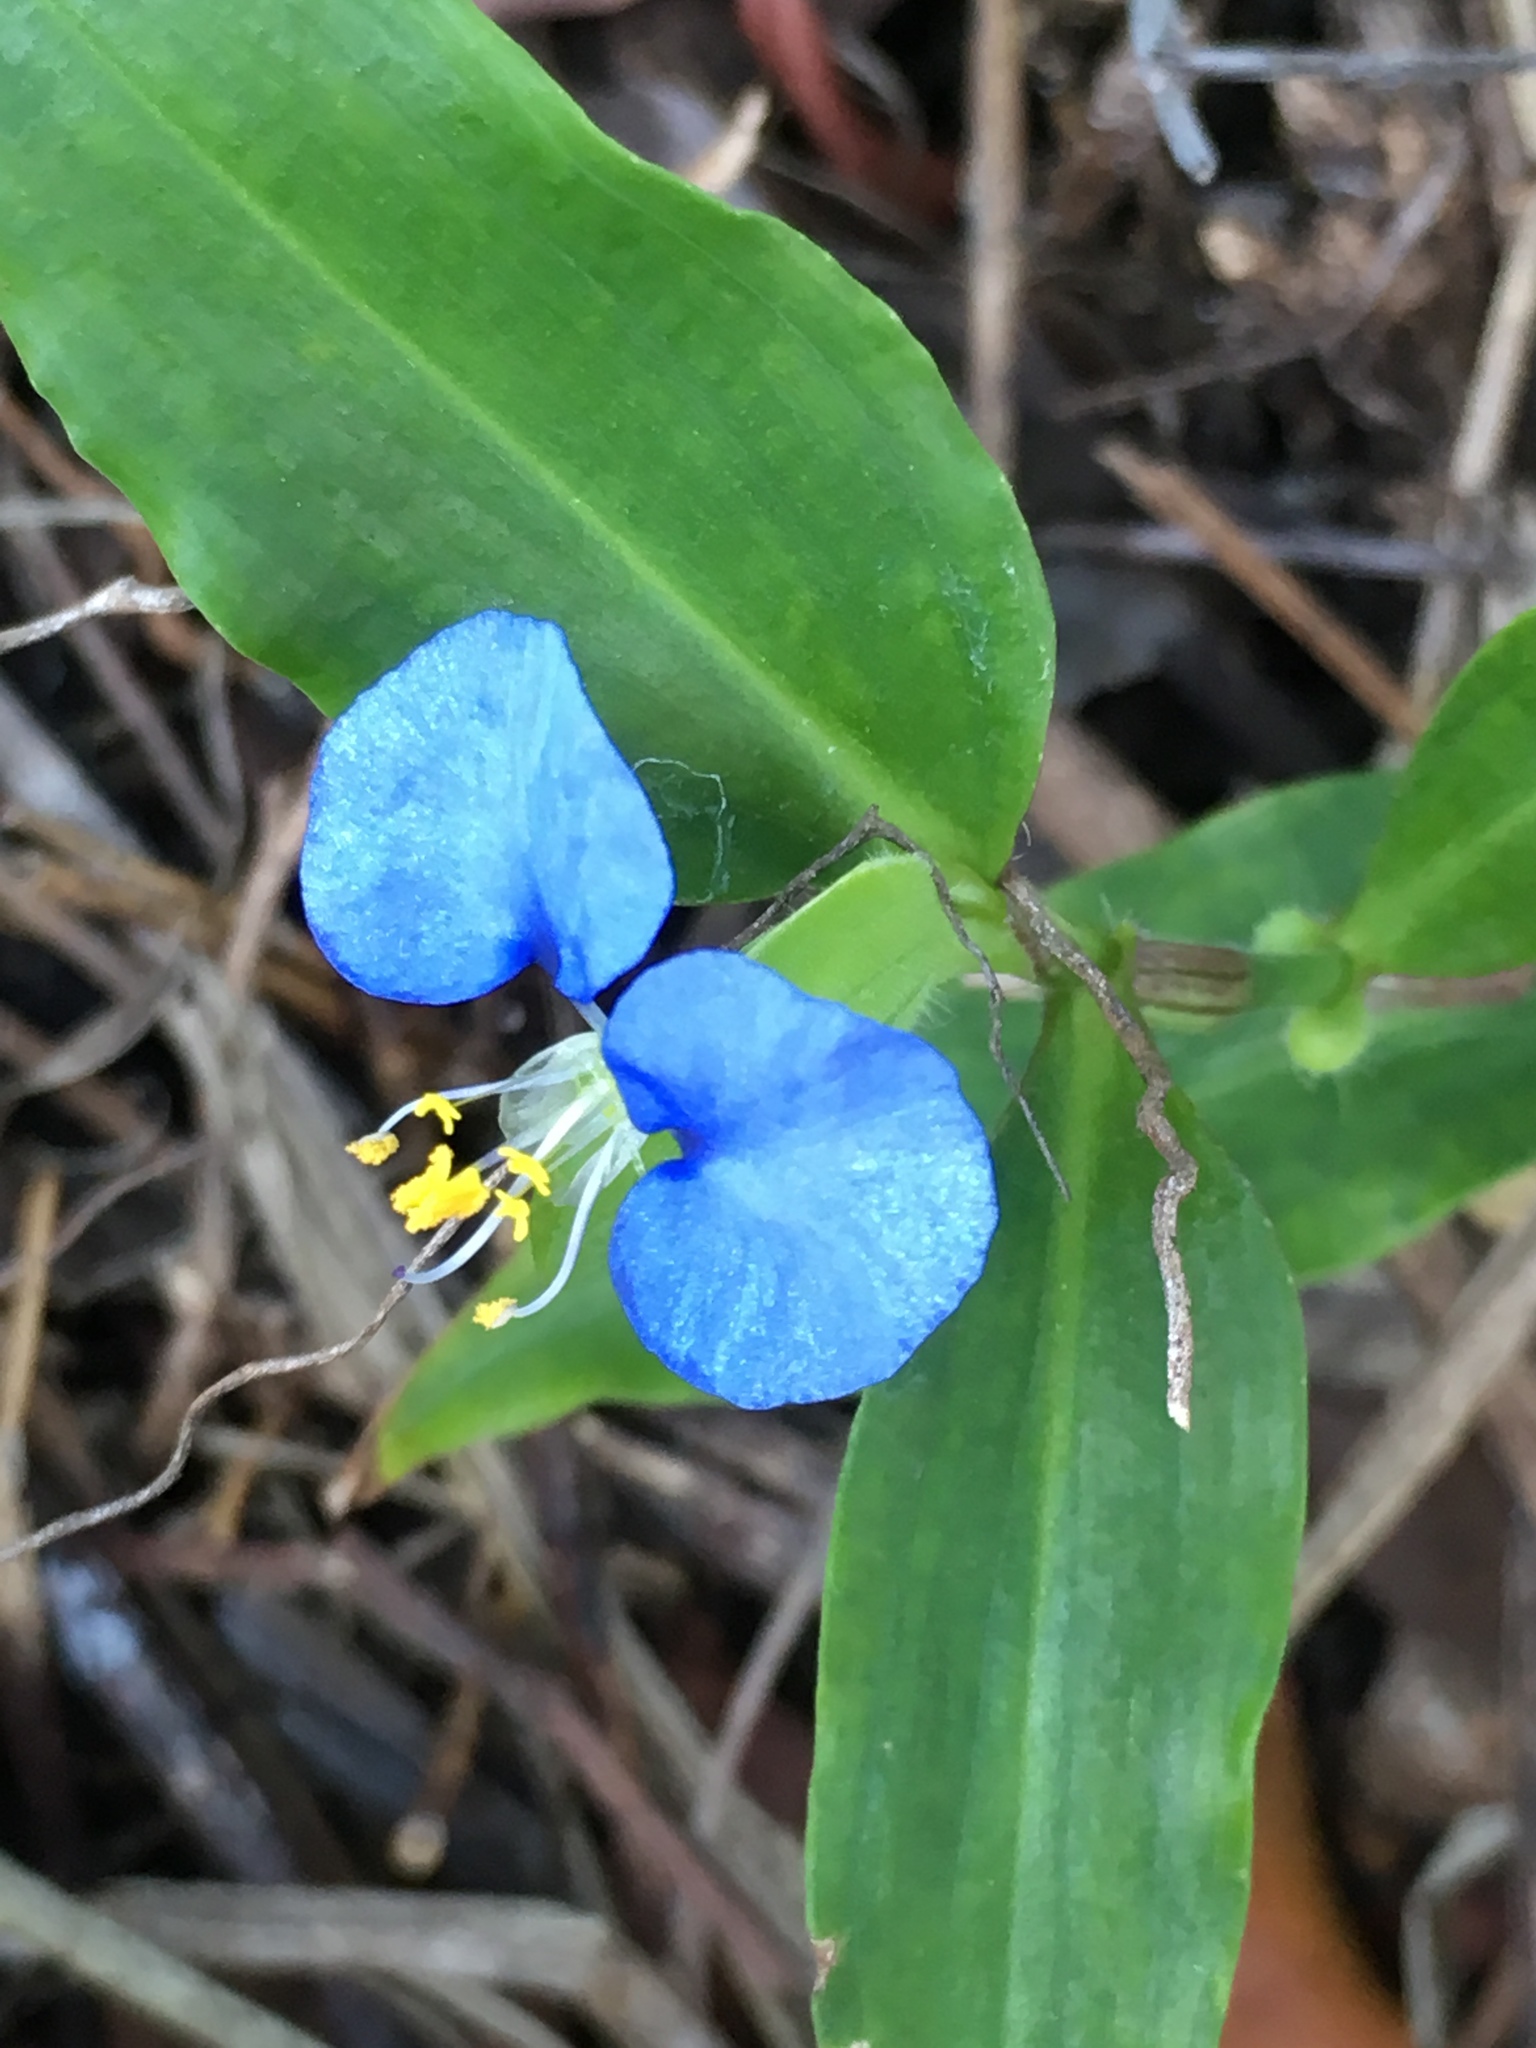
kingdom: Plantae
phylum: Tracheophyta
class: Liliopsida
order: Commelinales
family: Commelinaceae
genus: Commelina
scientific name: Commelina erecta
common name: Blousel blommetjie
